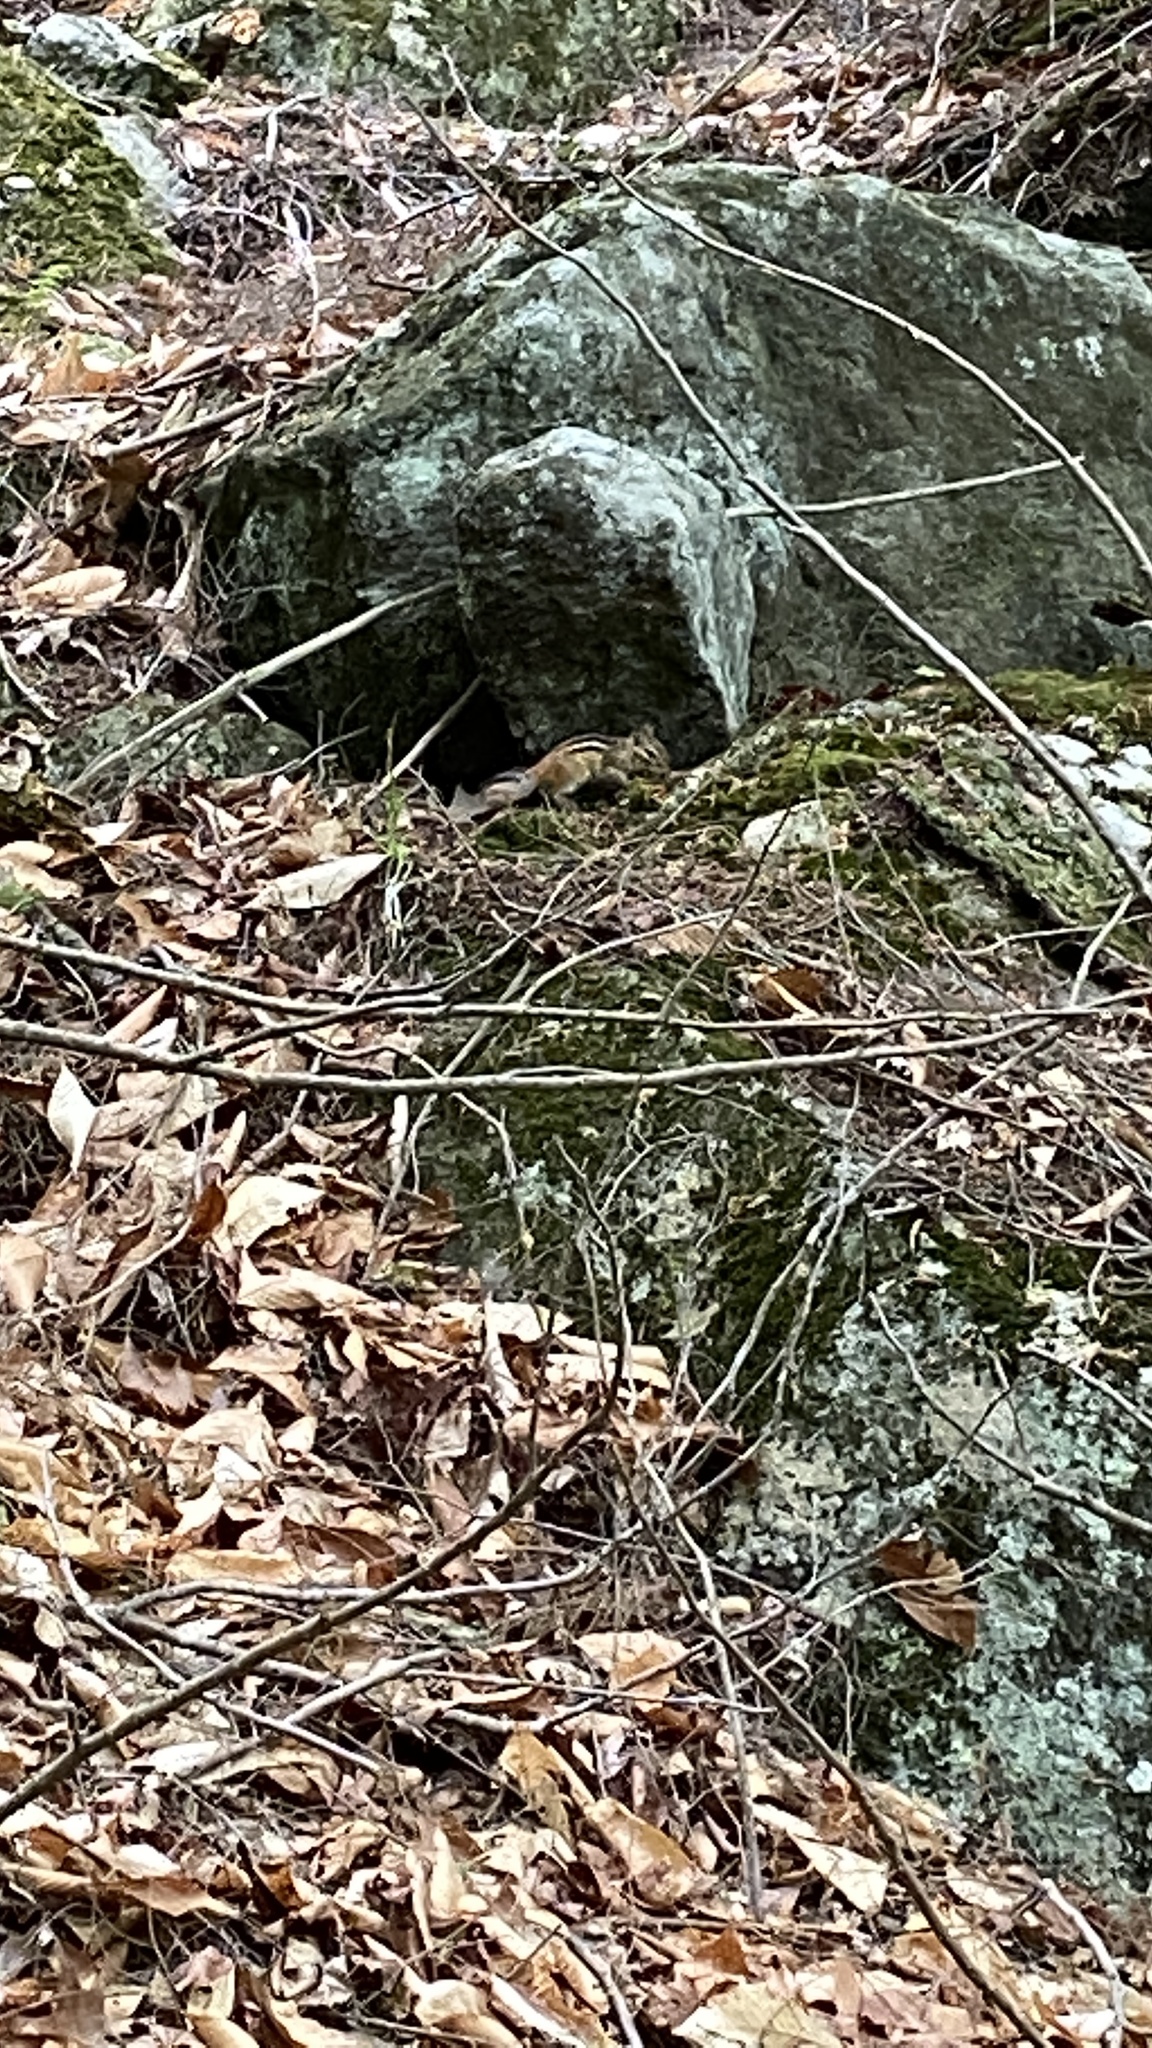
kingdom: Animalia
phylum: Chordata
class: Mammalia
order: Rodentia
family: Sciuridae
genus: Tamias
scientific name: Tamias striatus
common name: Eastern chipmunk
